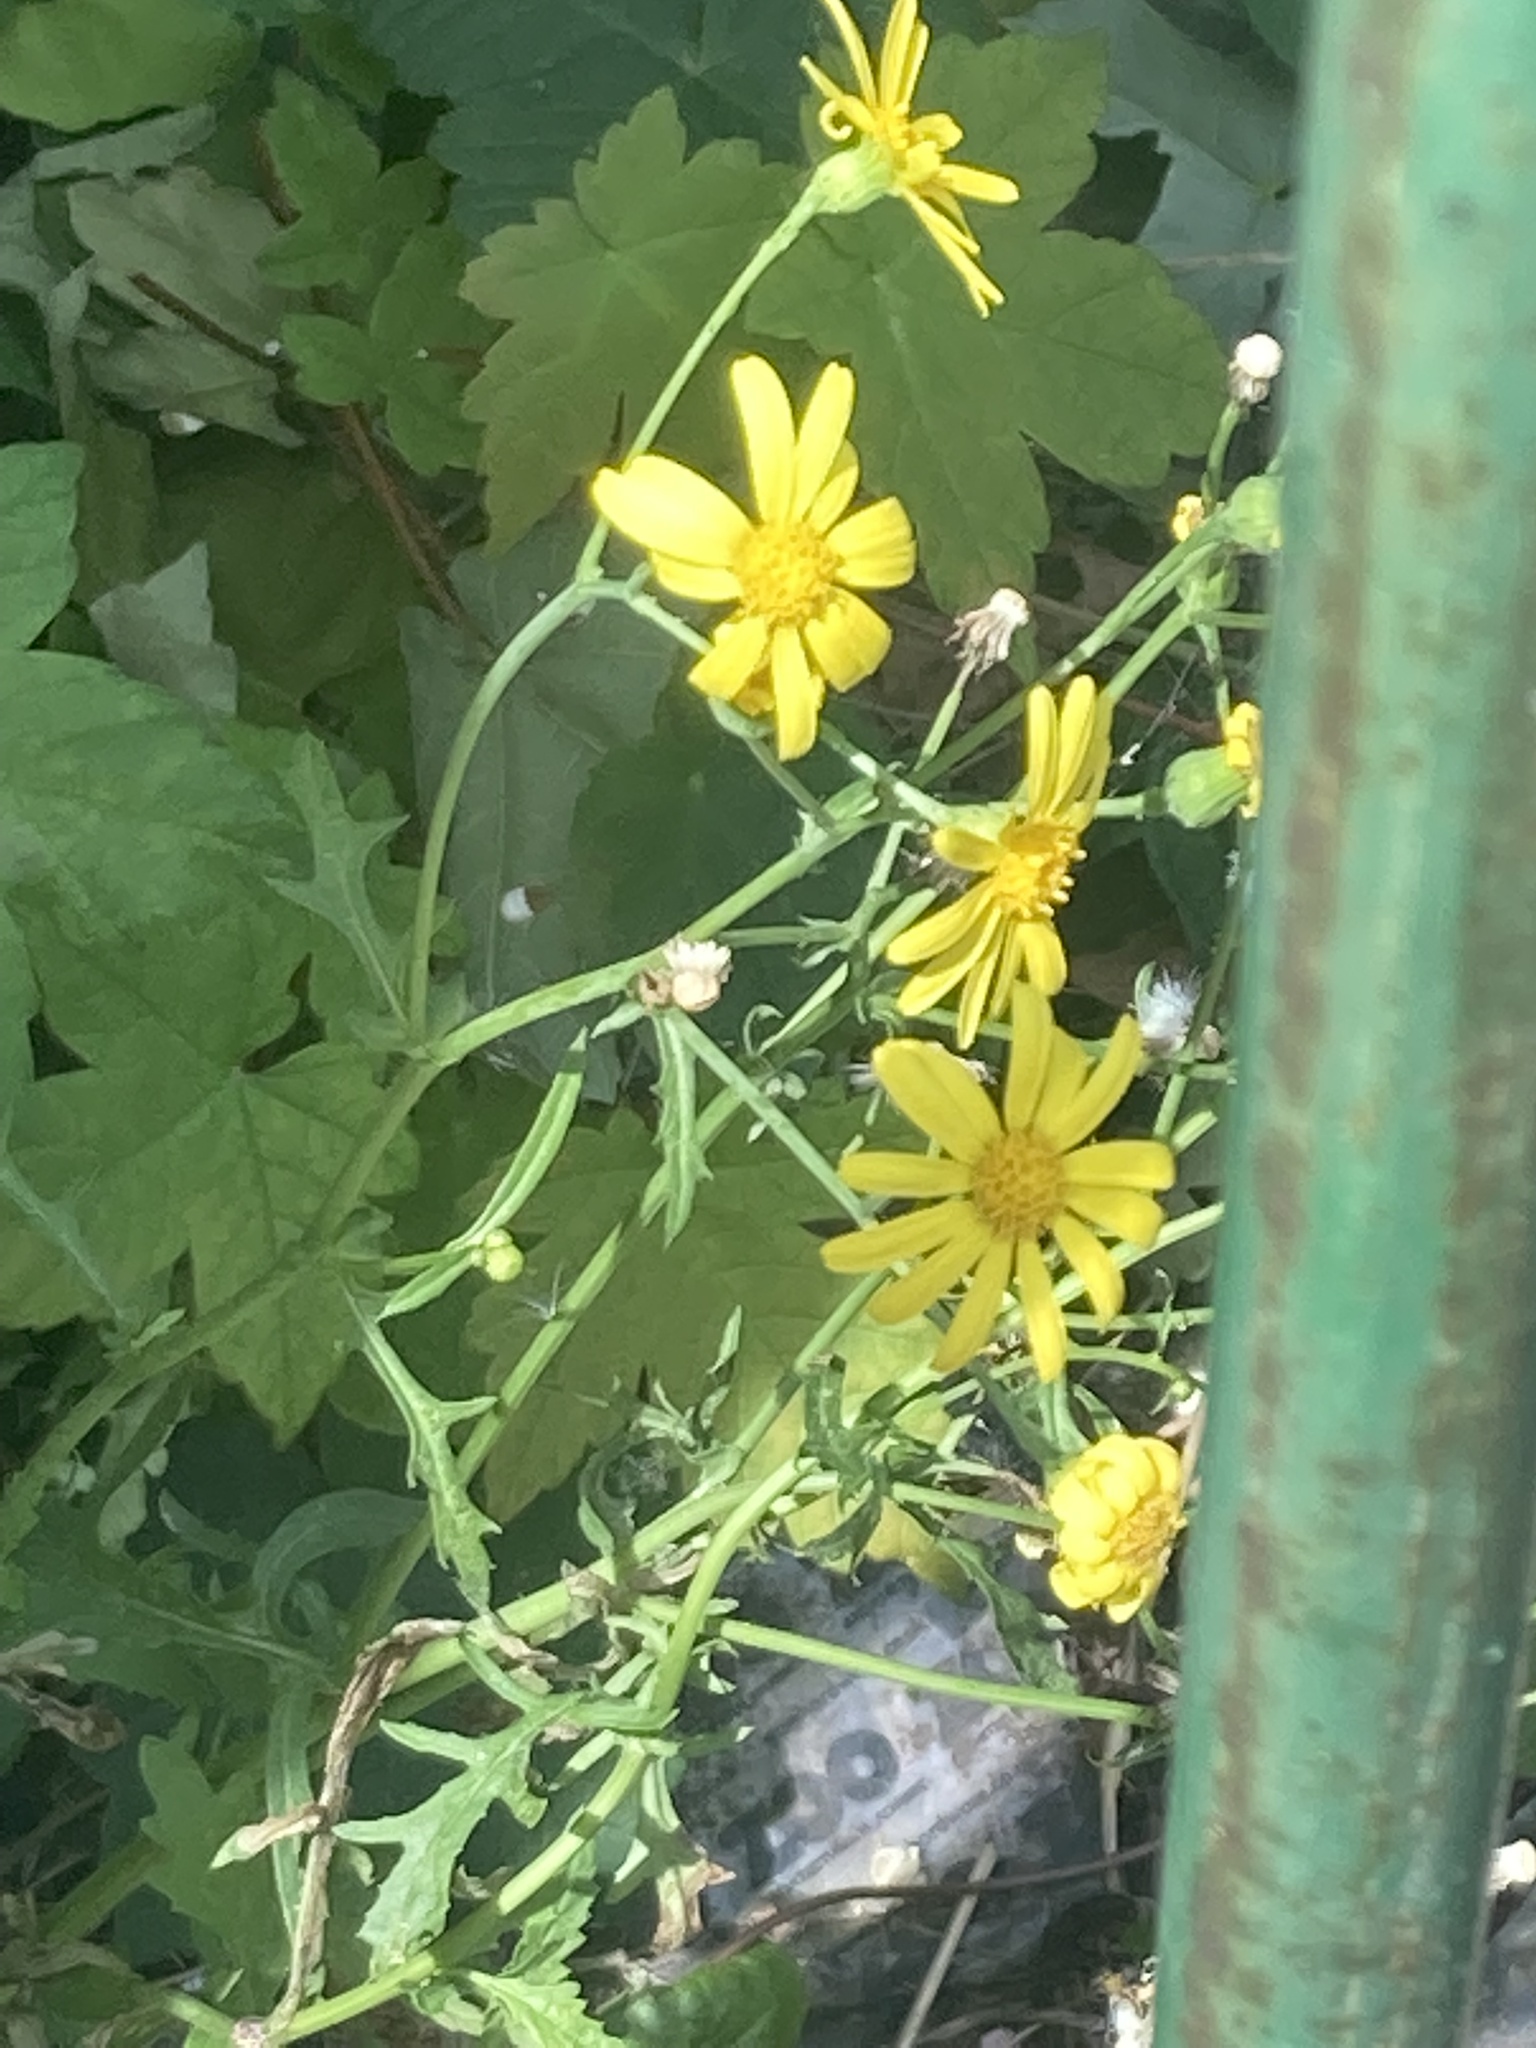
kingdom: Plantae
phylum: Tracheophyta
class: Magnoliopsida
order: Asterales
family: Asteraceae
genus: Senecio
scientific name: Senecio squalidus
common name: Oxford ragwort
